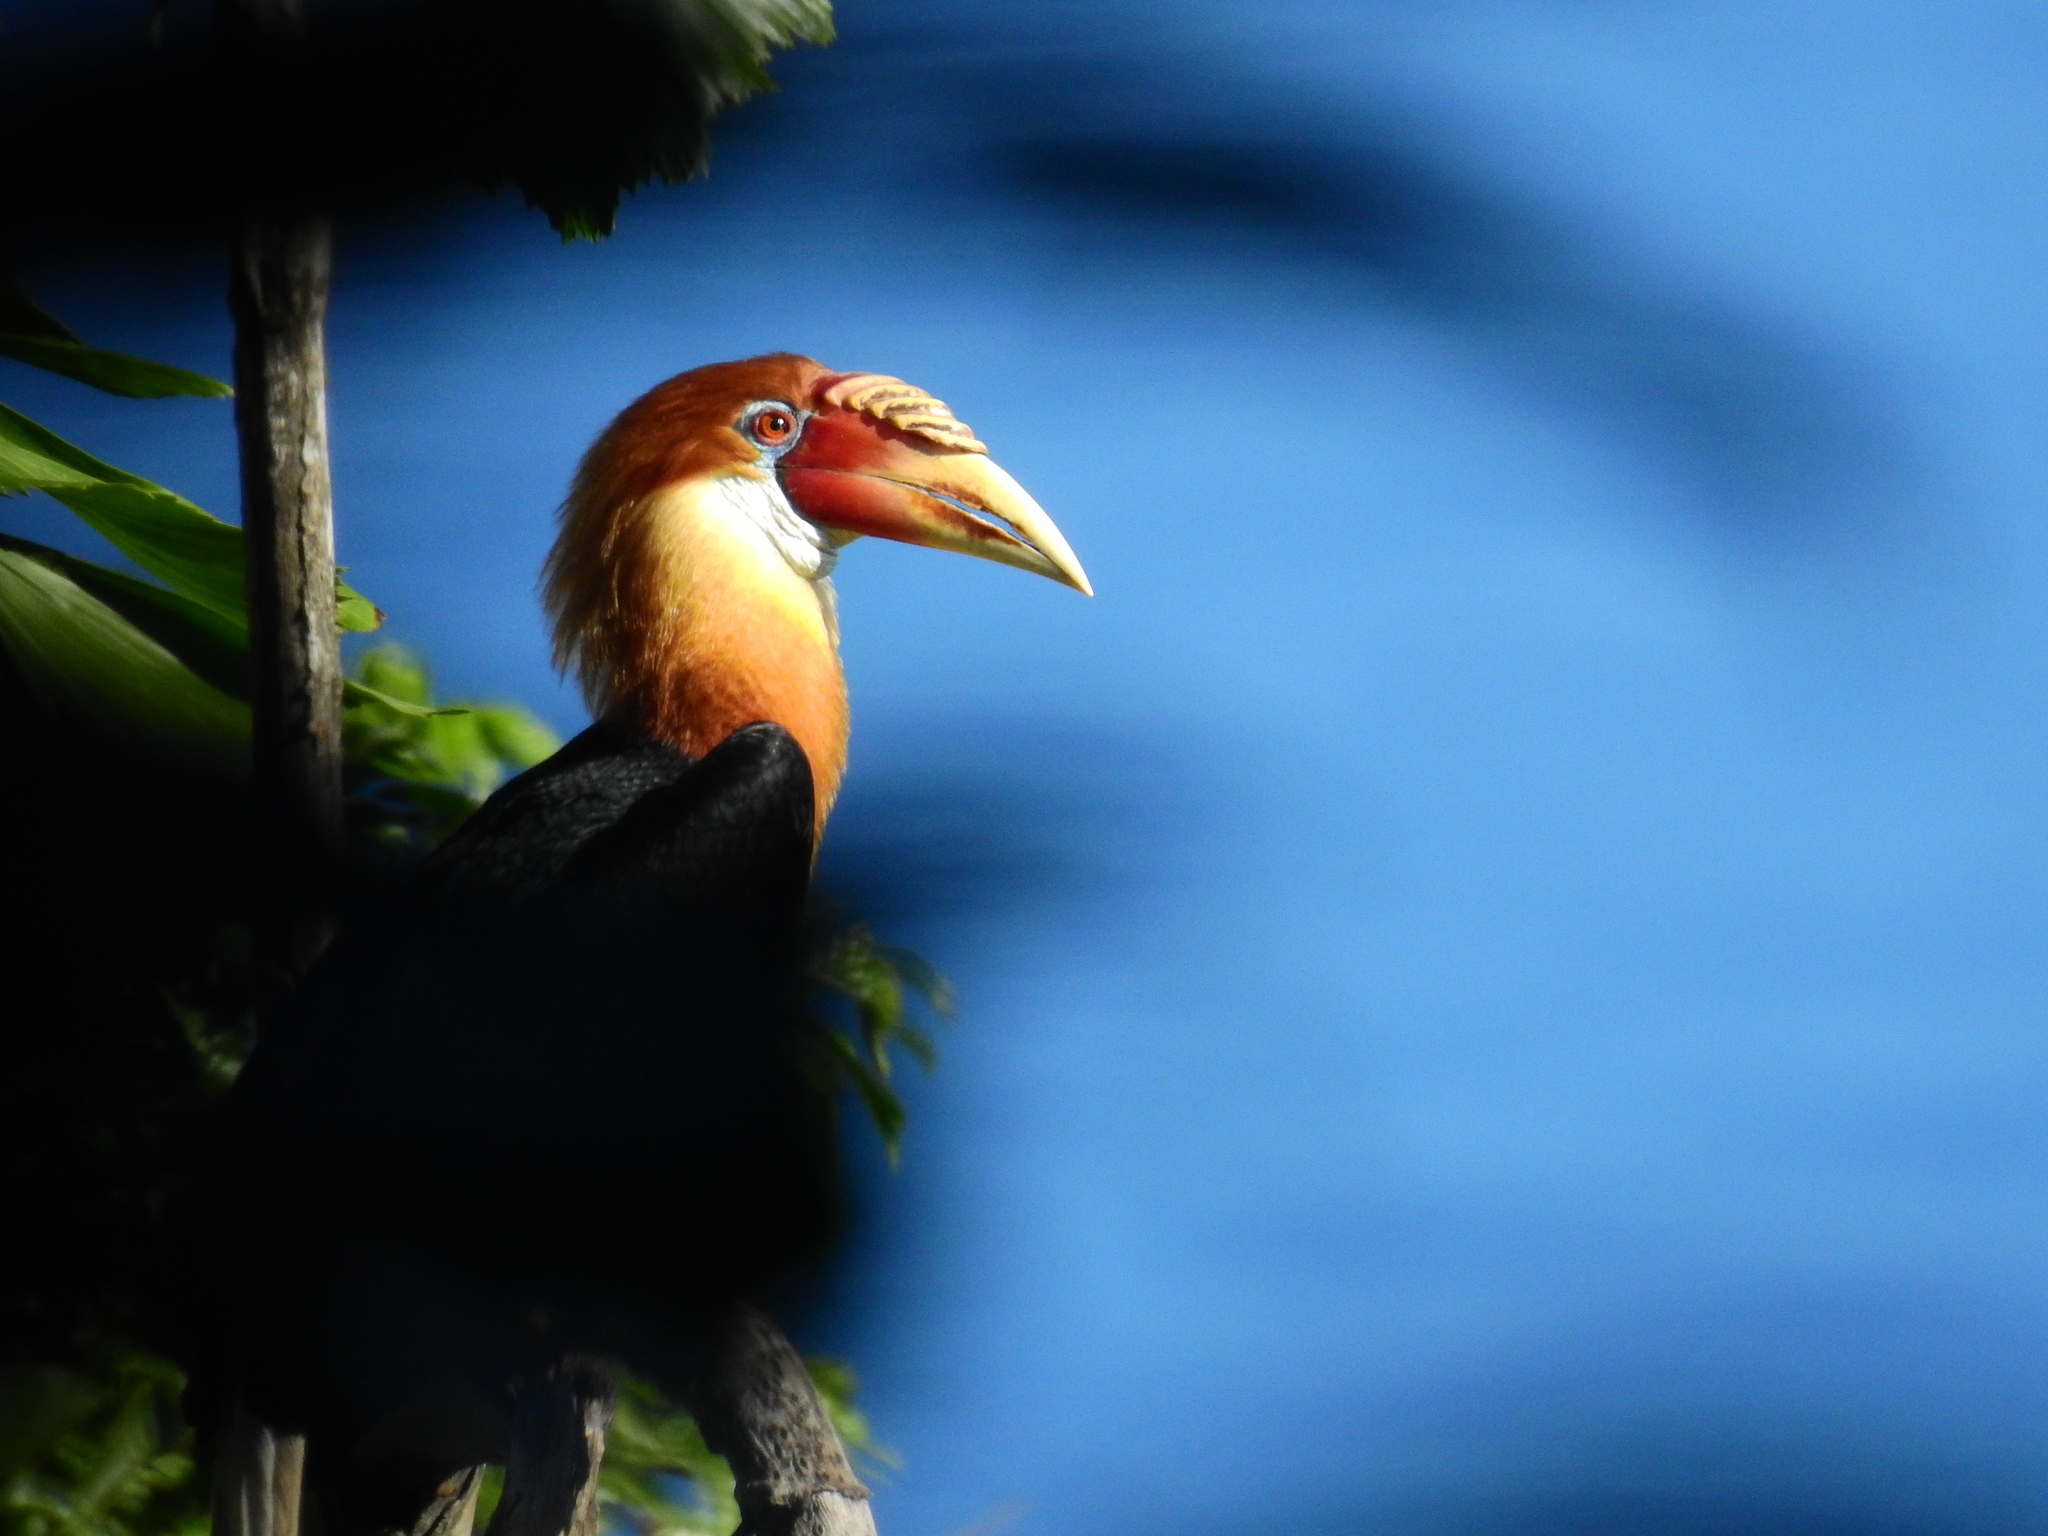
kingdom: Animalia
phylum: Chordata
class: Aves
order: Bucerotiformes
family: Bucerotidae
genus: Rhyticeros
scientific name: Rhyticeros narcondami
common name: Narcondam hornbill
